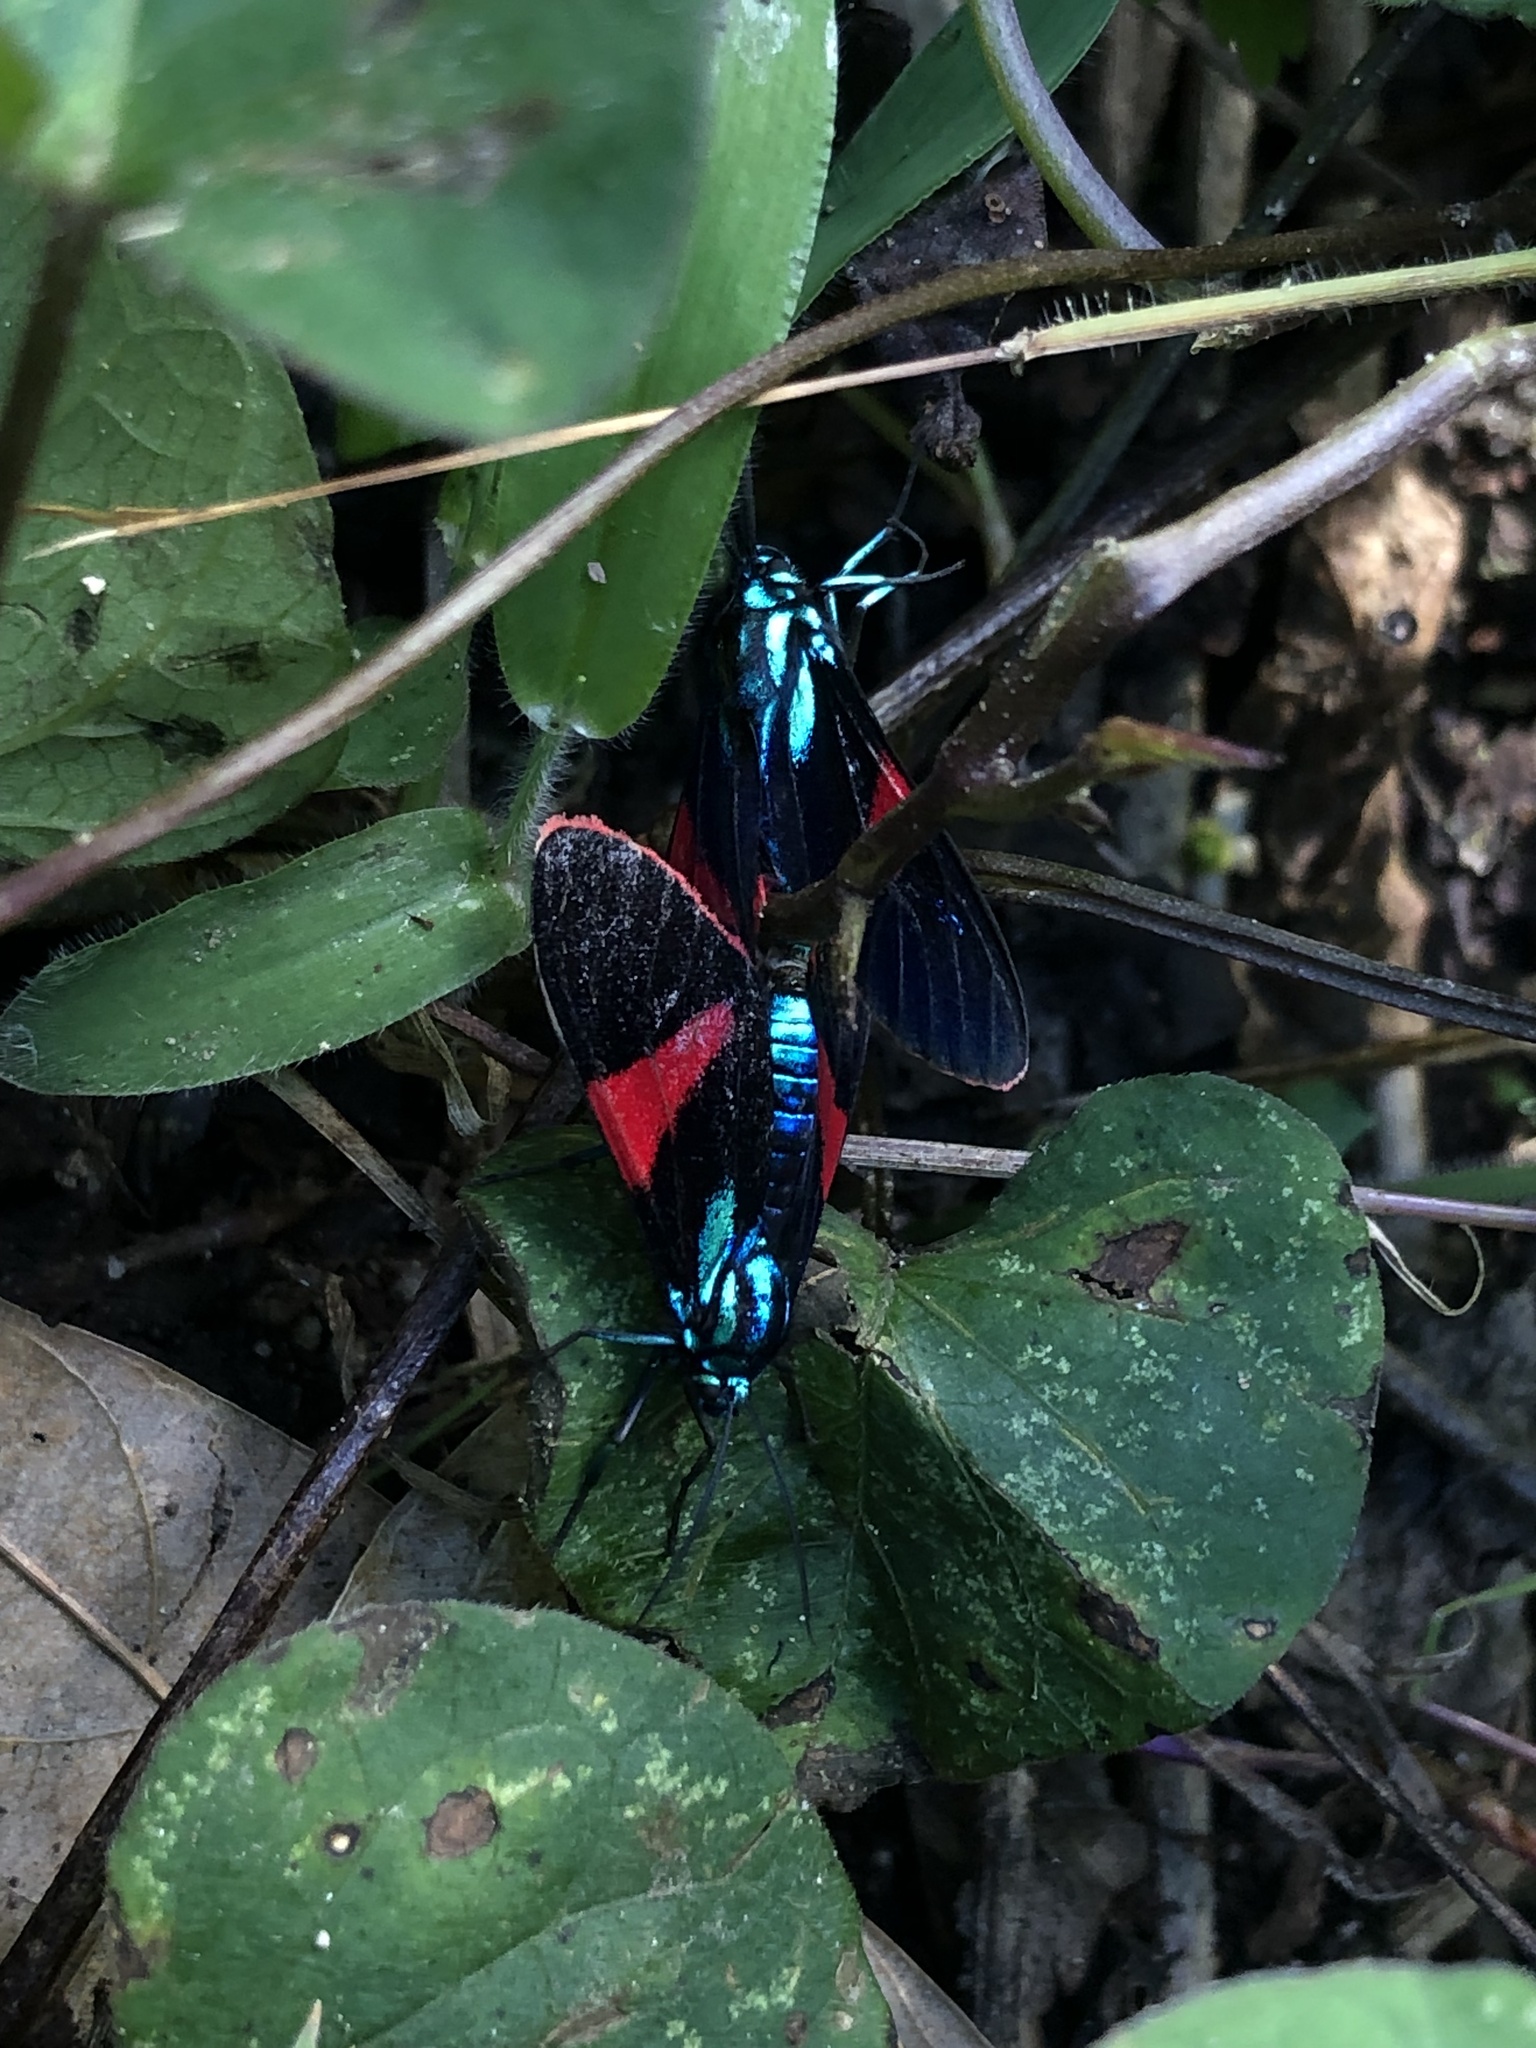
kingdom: Animalia
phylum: Arthropoda
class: Insecta
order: Lepidoptera
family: Erebidae
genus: Cyanopepla
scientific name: Cyanopepla scintillans
